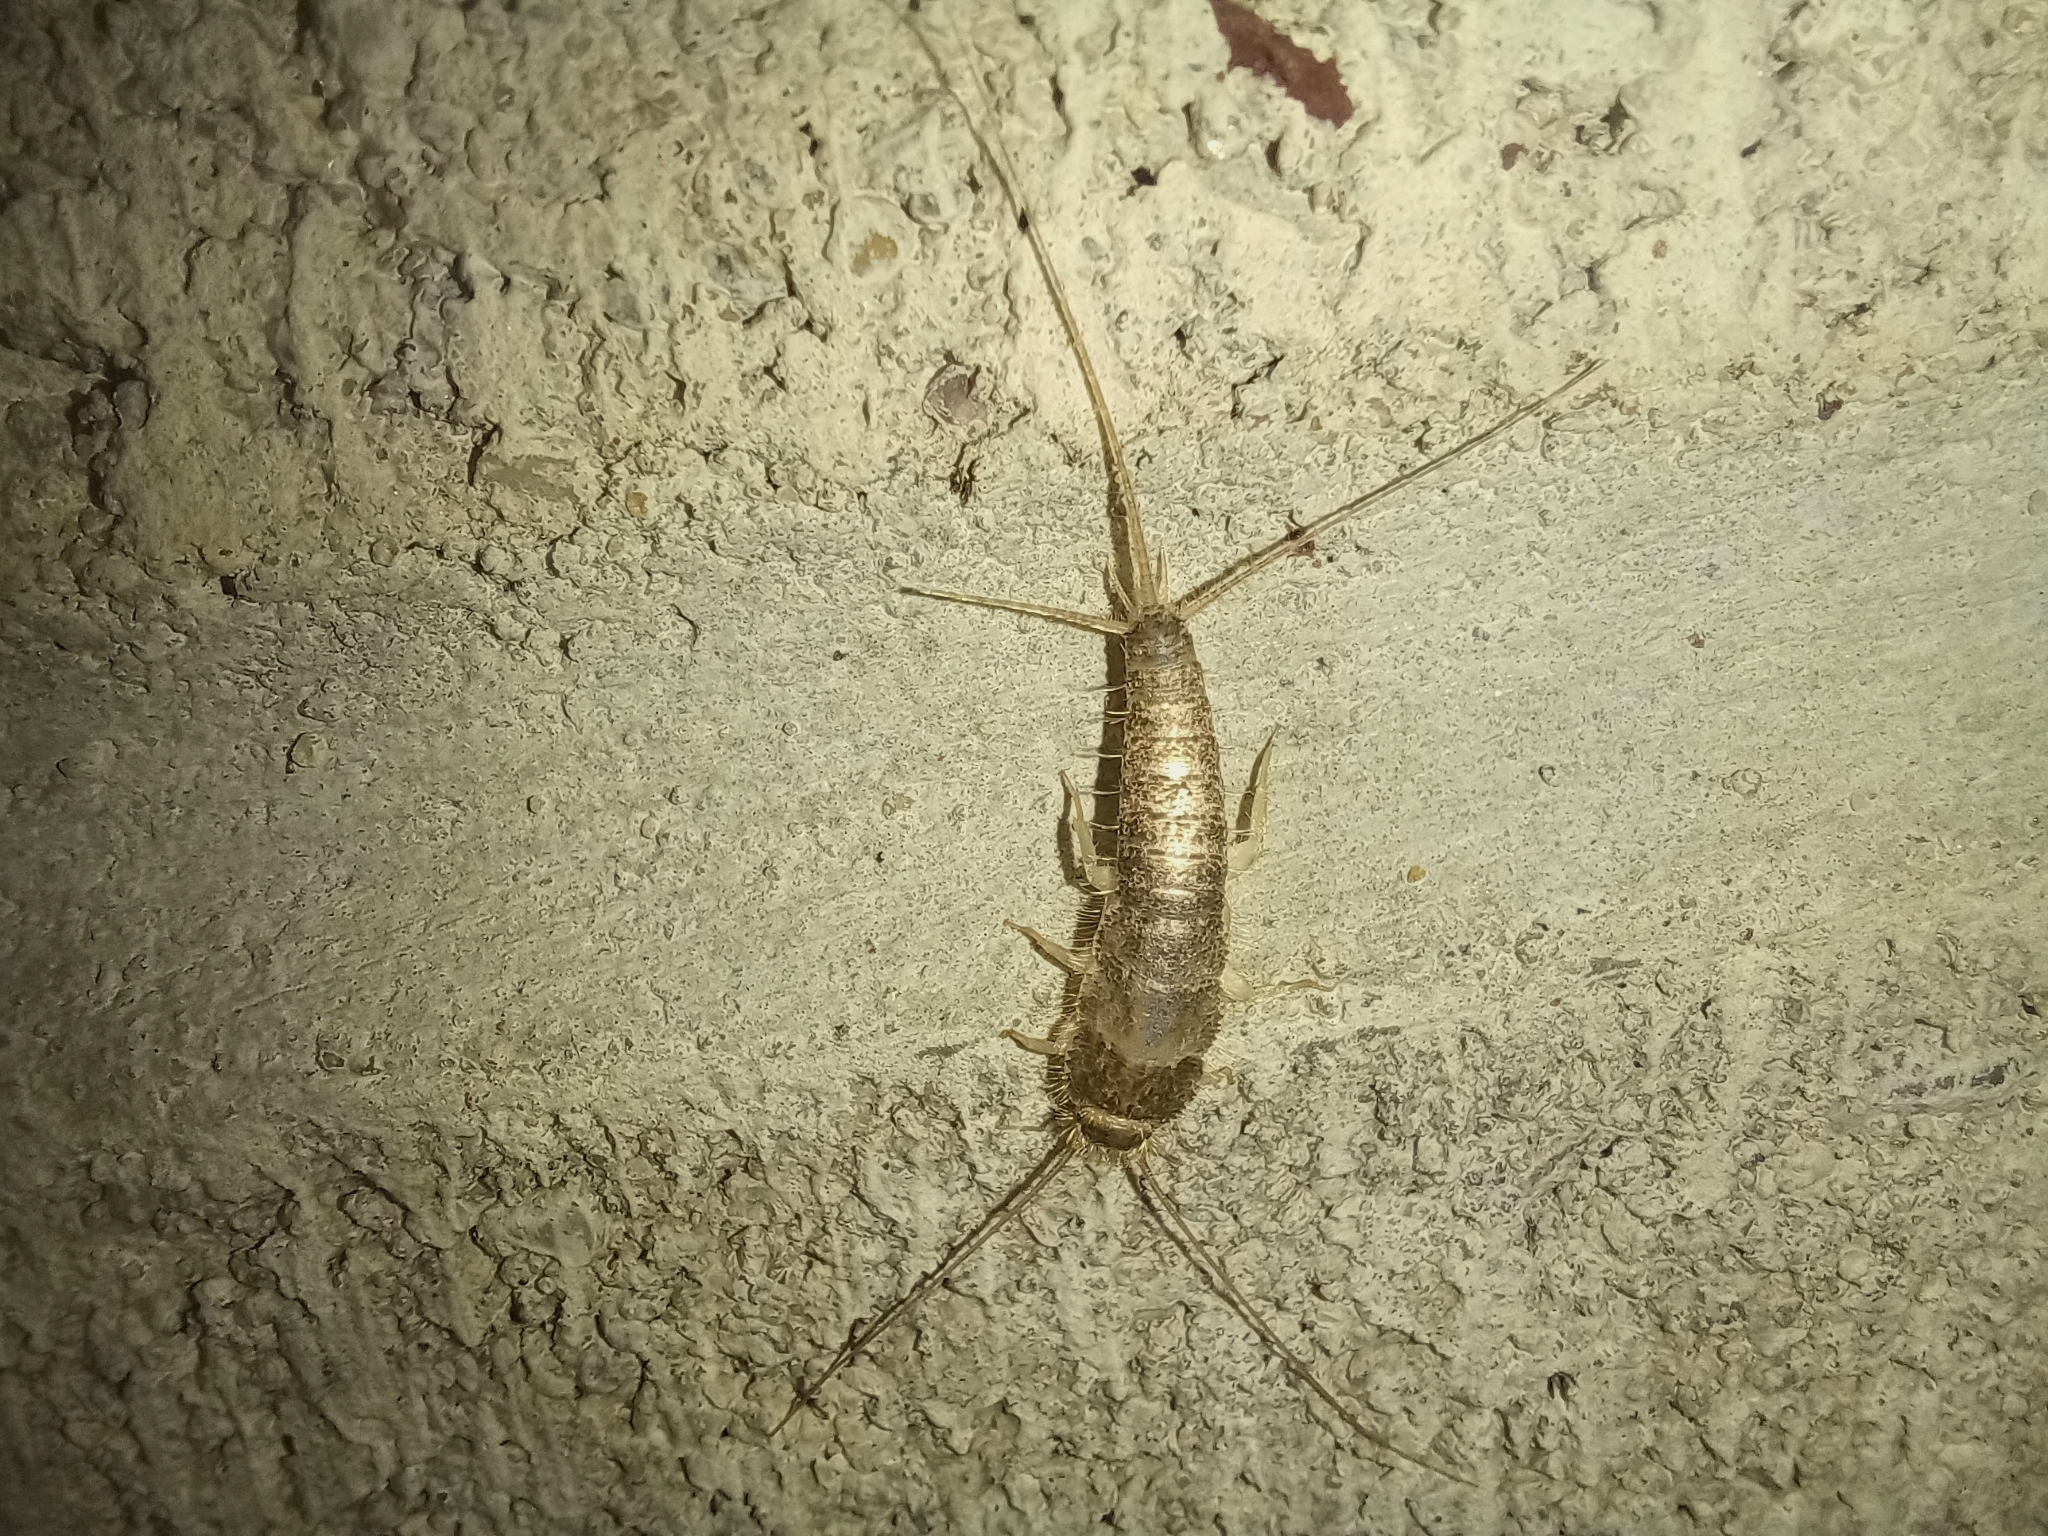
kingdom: Animalia
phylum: Arthropoda
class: Insecta
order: Zygentoma
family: Lepismatidae
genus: Ctenolepisma
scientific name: Ctenolepisma longicaudatum
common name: Silverfish
